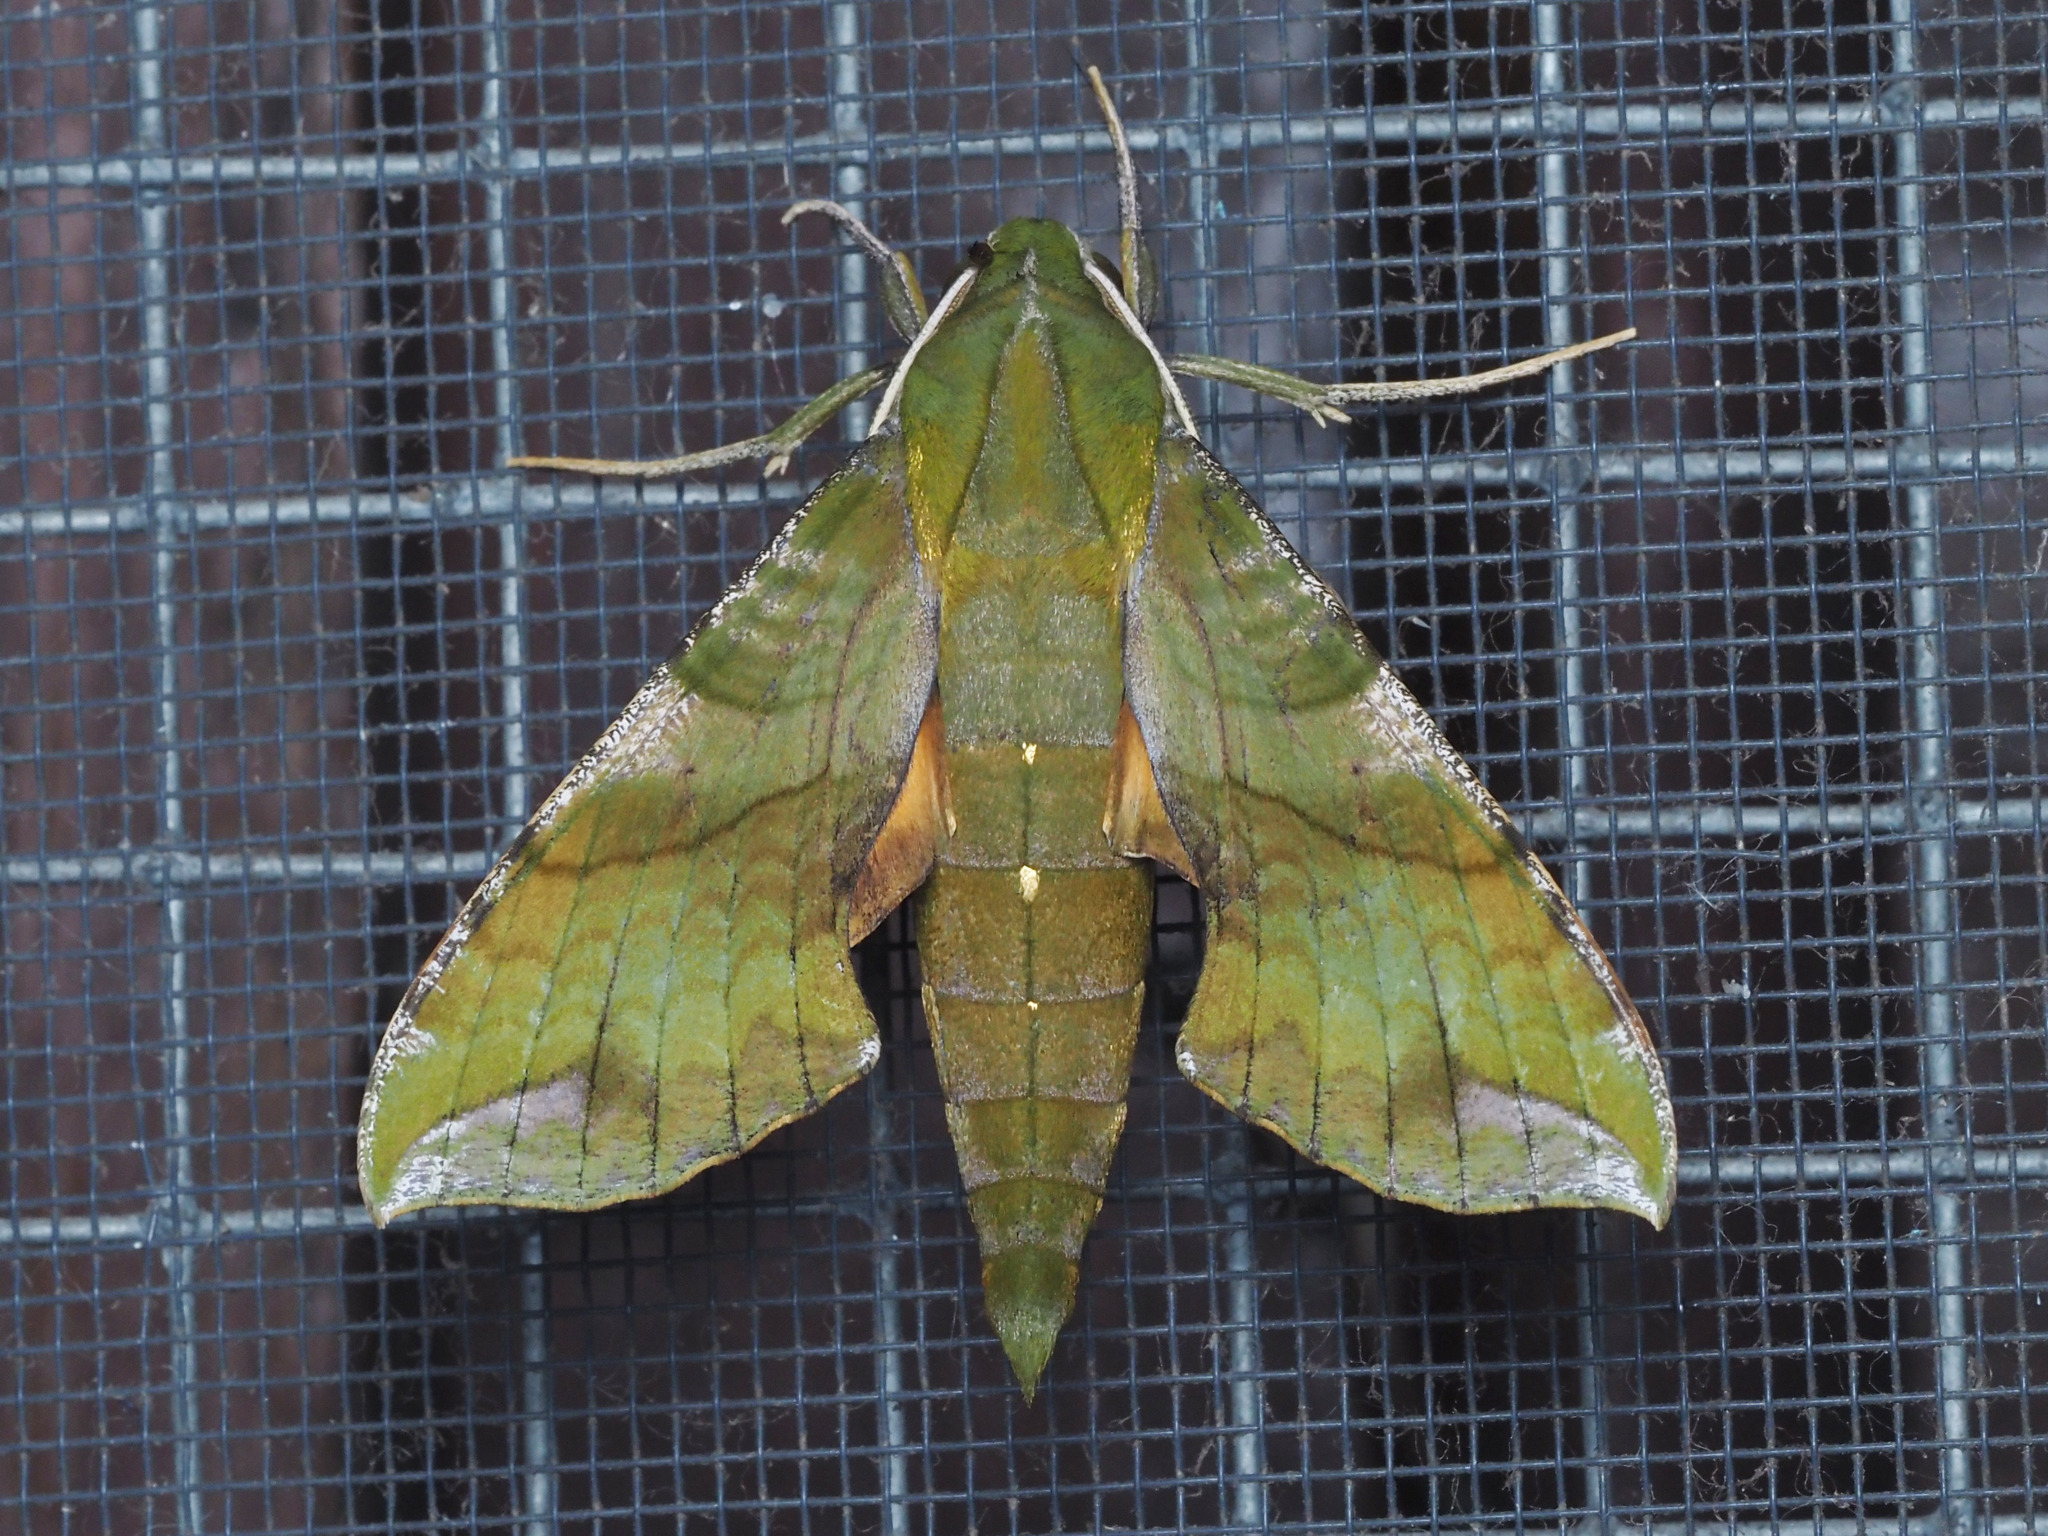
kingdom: Animalia
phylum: Arthropoda
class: Insecta
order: Lepidoptera
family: Sphingidae
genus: Xylophanes
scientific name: Xylophanes pluto
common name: Pluto sphinx
